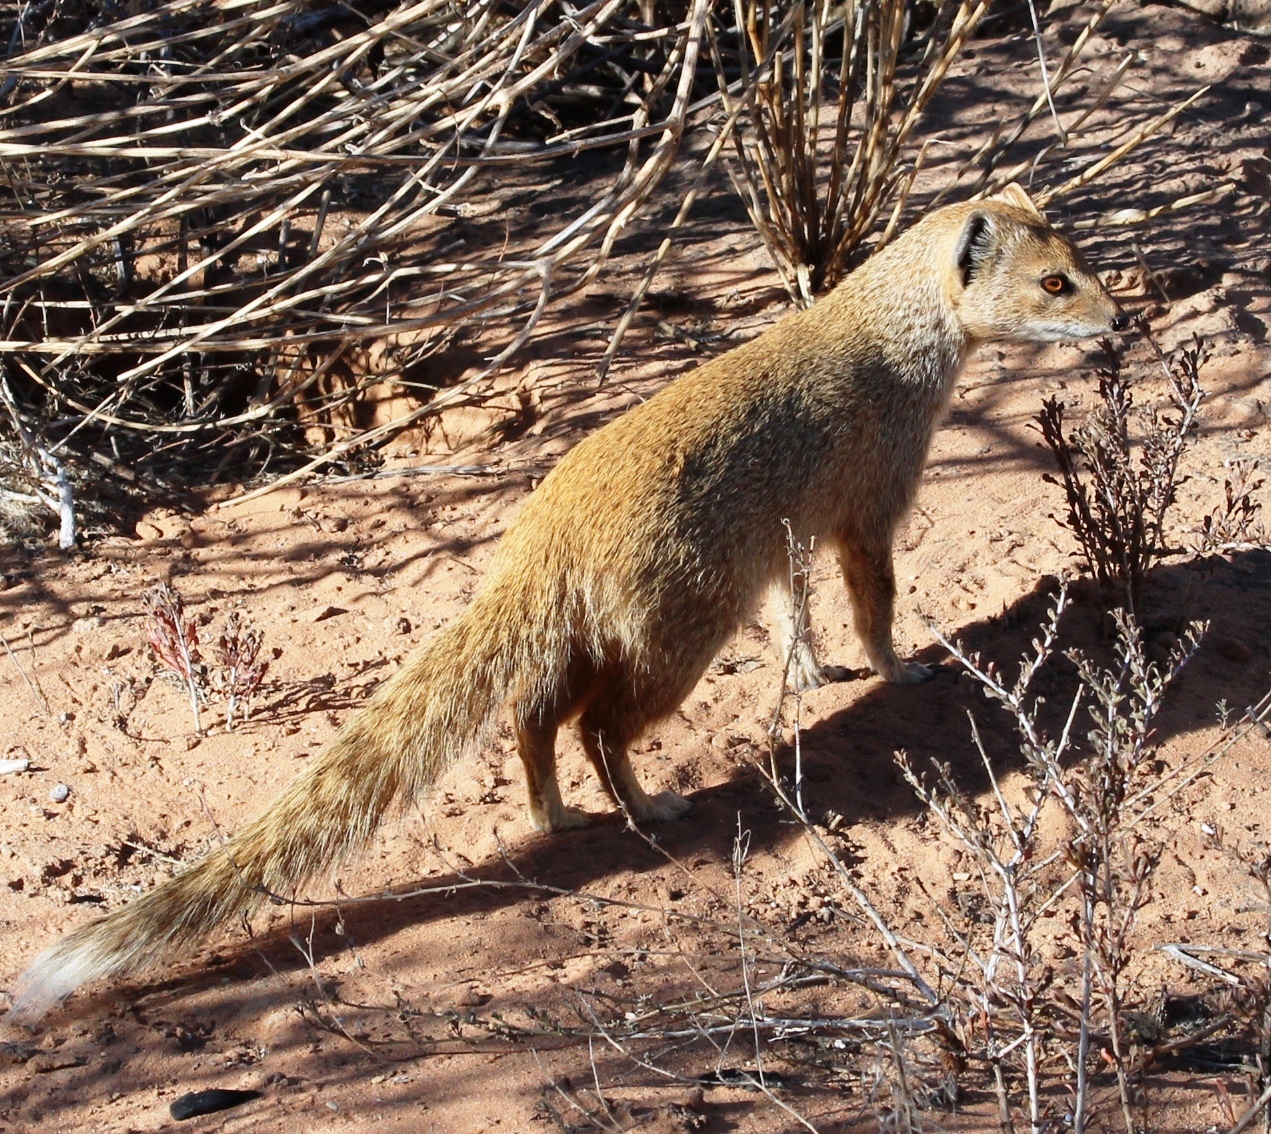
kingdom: Animalia
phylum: Chordata
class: Mammalia
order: Carnivora
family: Herpestidae
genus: Cynictis
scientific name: Cynictis penicillata
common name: Yellow mongoose
